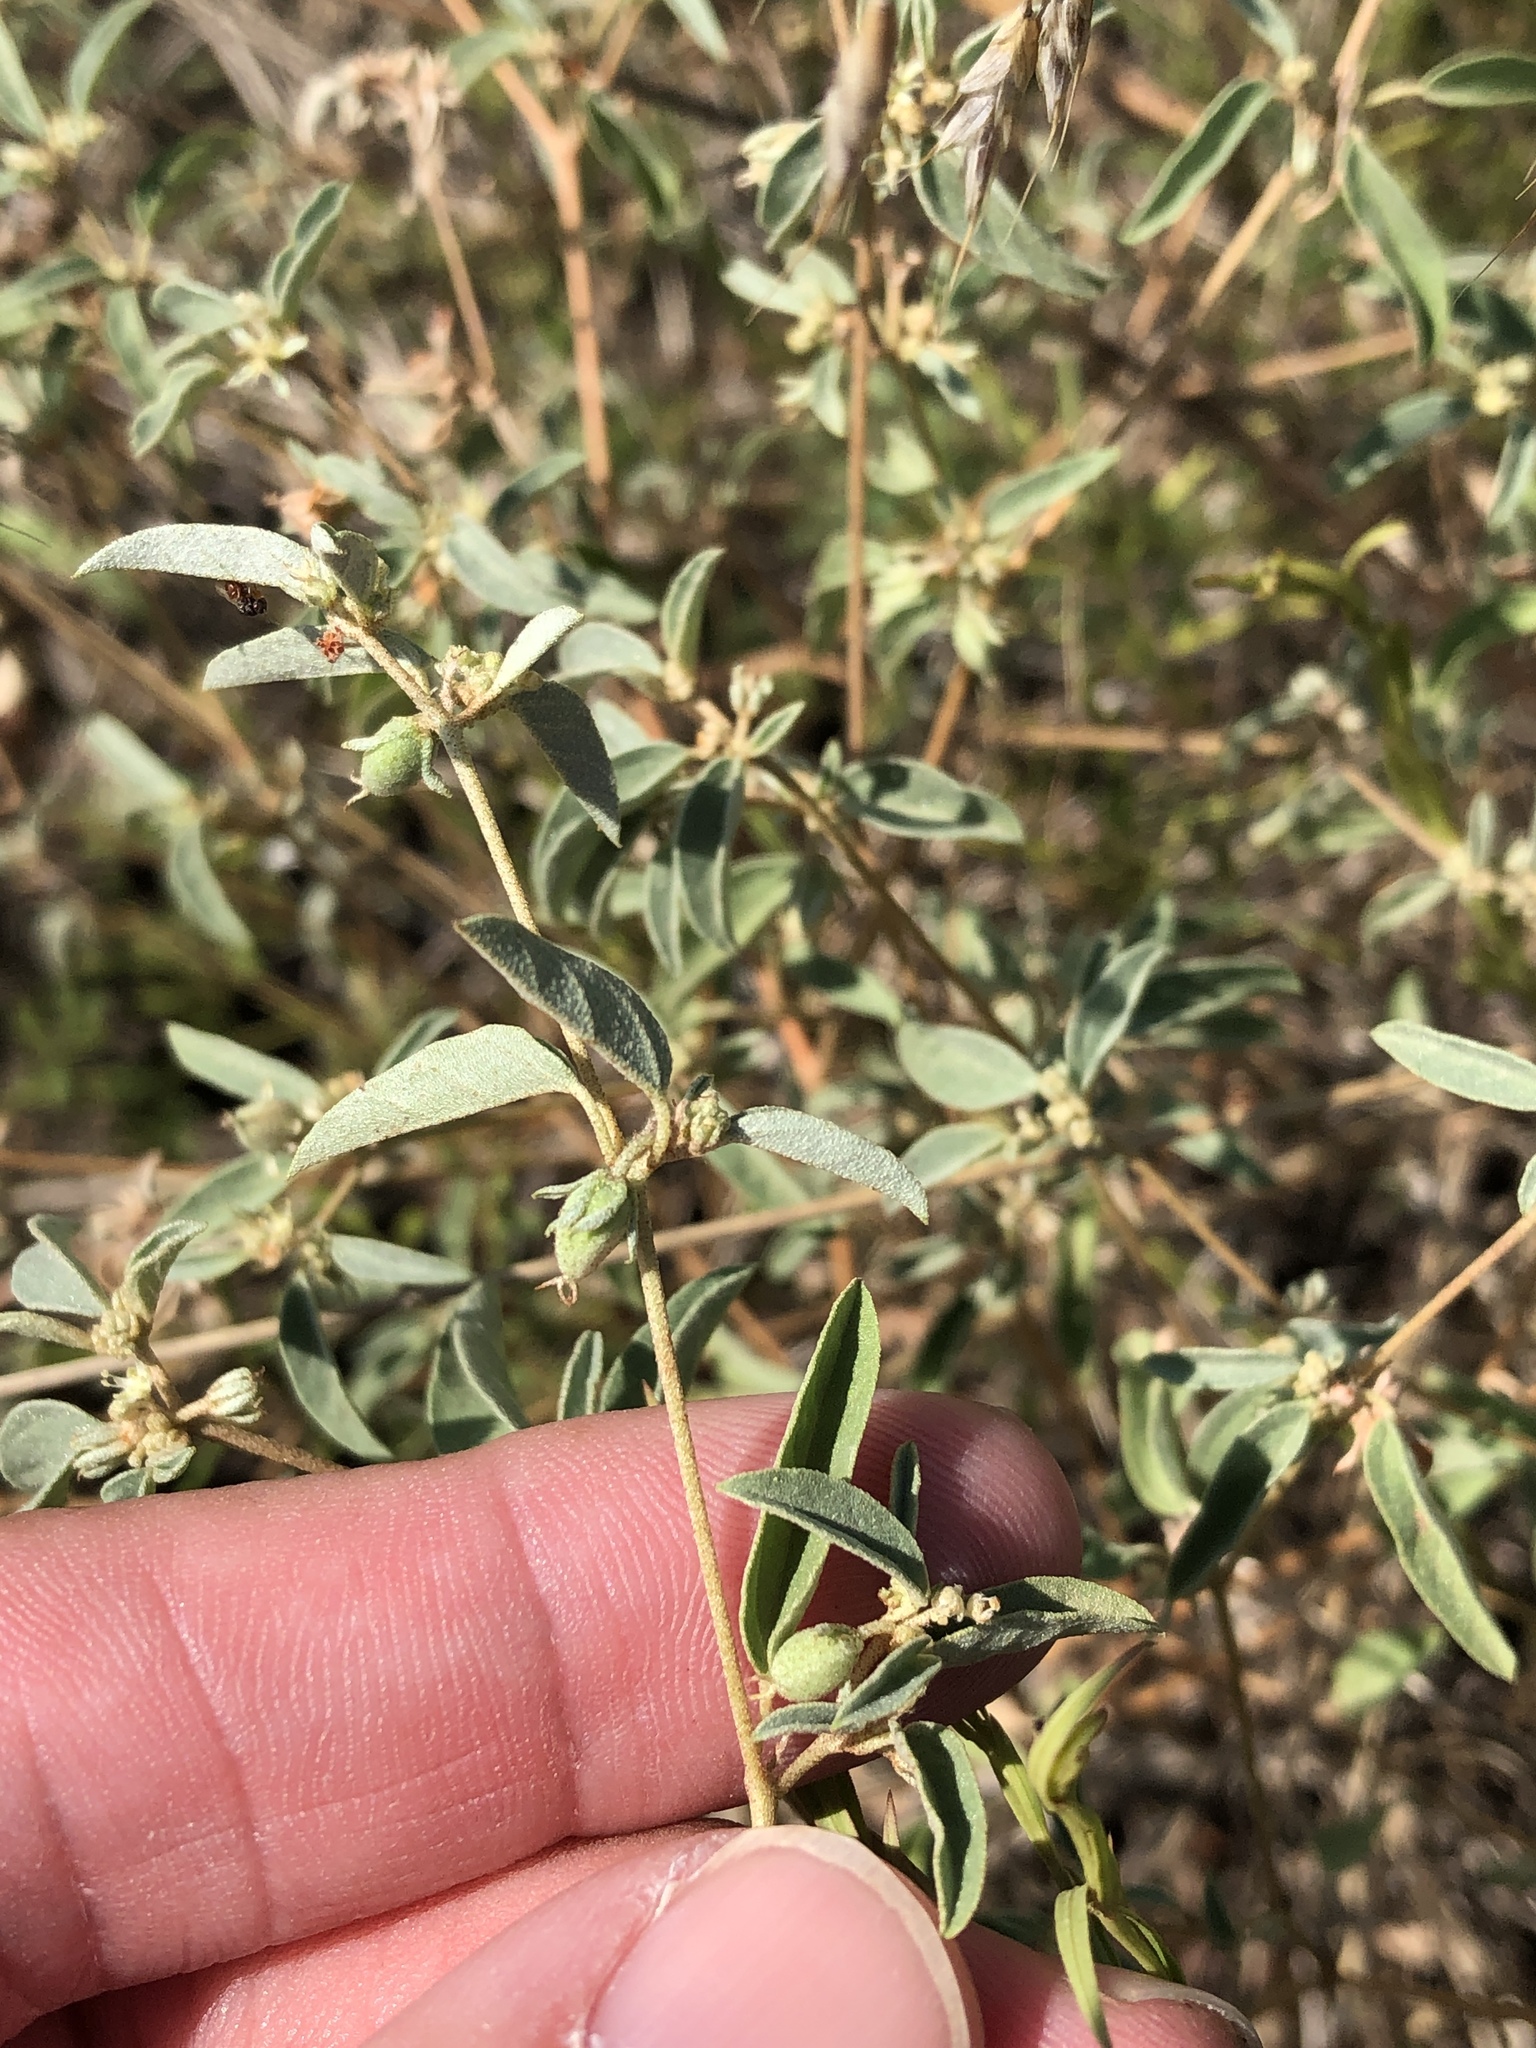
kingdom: Plantae
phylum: Tracheophyta
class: Magnoliopsida
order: Malpighiales
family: Euphorbiaceae
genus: Croton
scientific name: Croton monanthogynus
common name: One-seed croton
